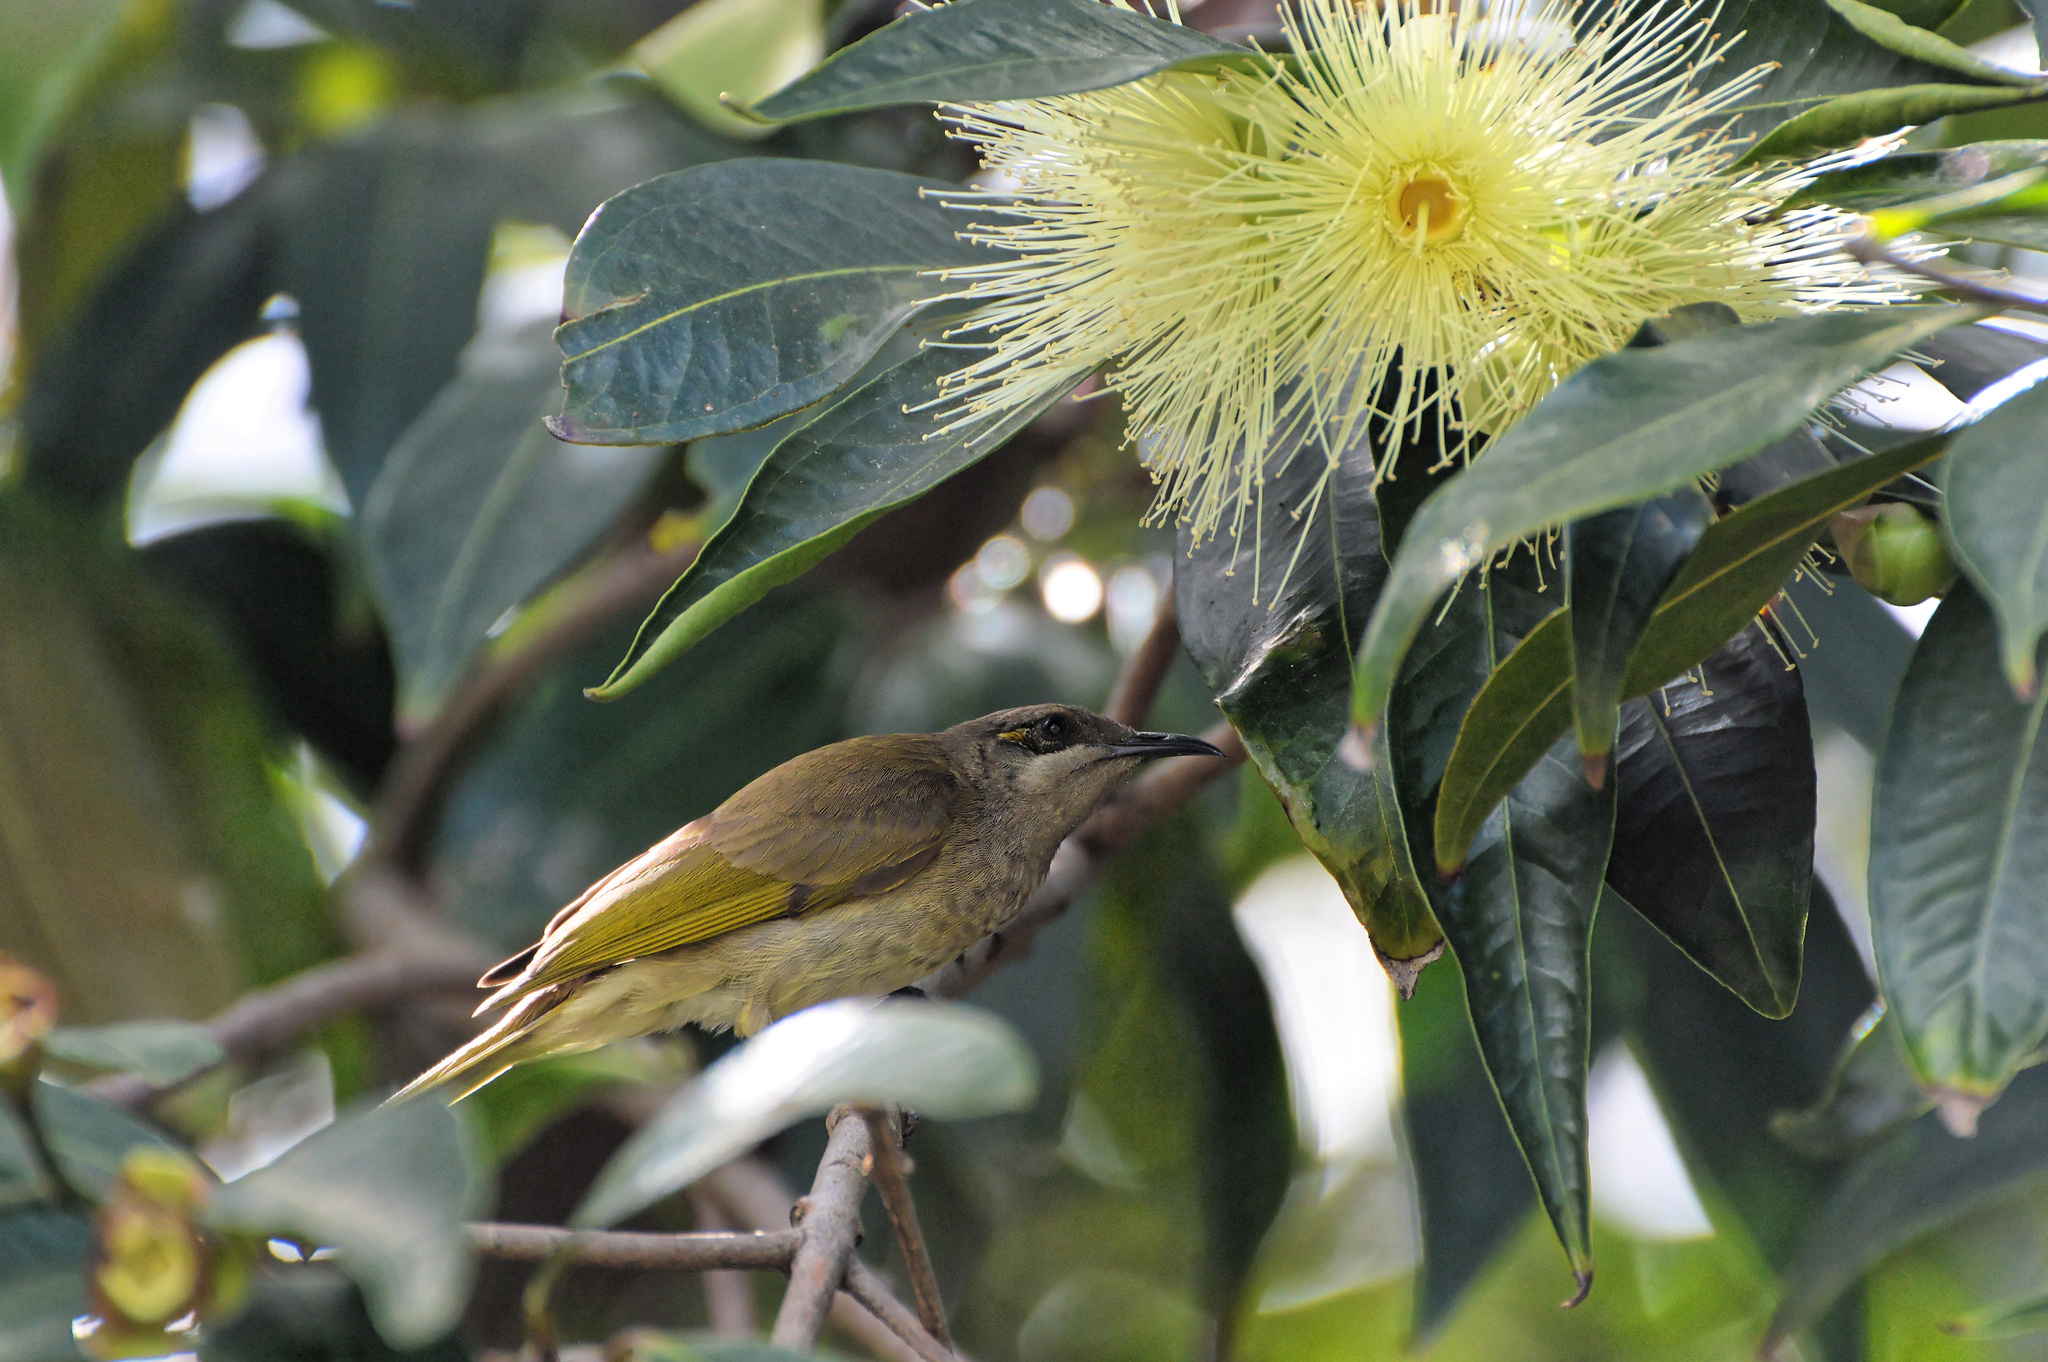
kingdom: Animalia
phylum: Chordata
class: Aves
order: Passeriformes
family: Meliphagidae
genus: Lichmera
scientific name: Lichmera indistincta
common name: Brown honeyeater
